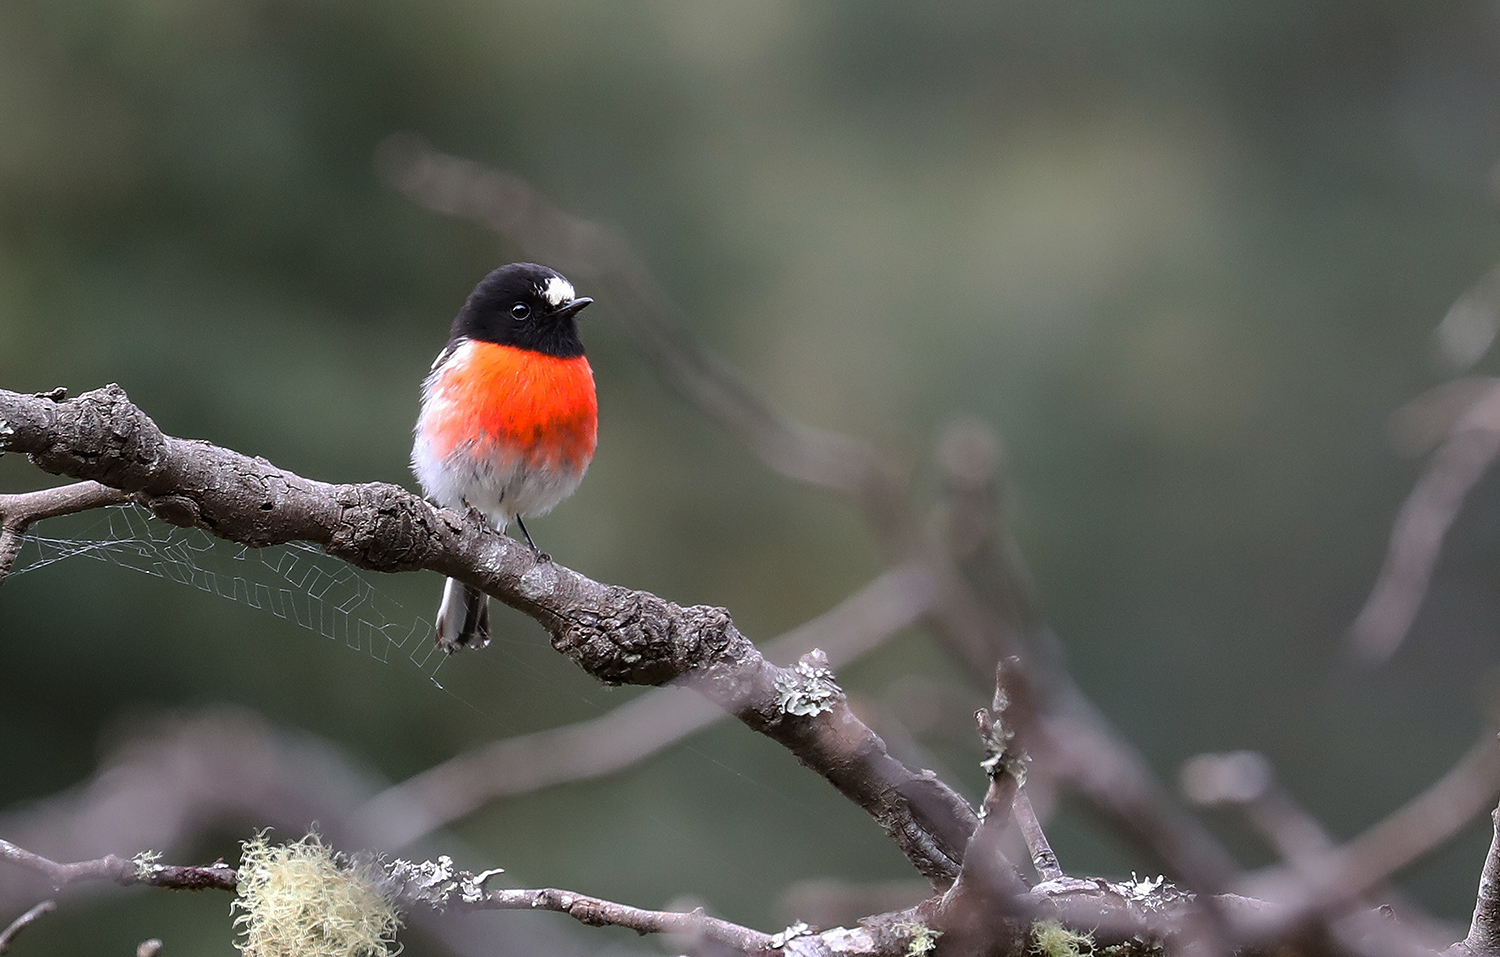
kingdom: Animalia
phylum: Chordata
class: Aves
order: Passeriformes
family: Petroicidae
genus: Petroica
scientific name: Petroica boodang
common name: Scarlet robin
